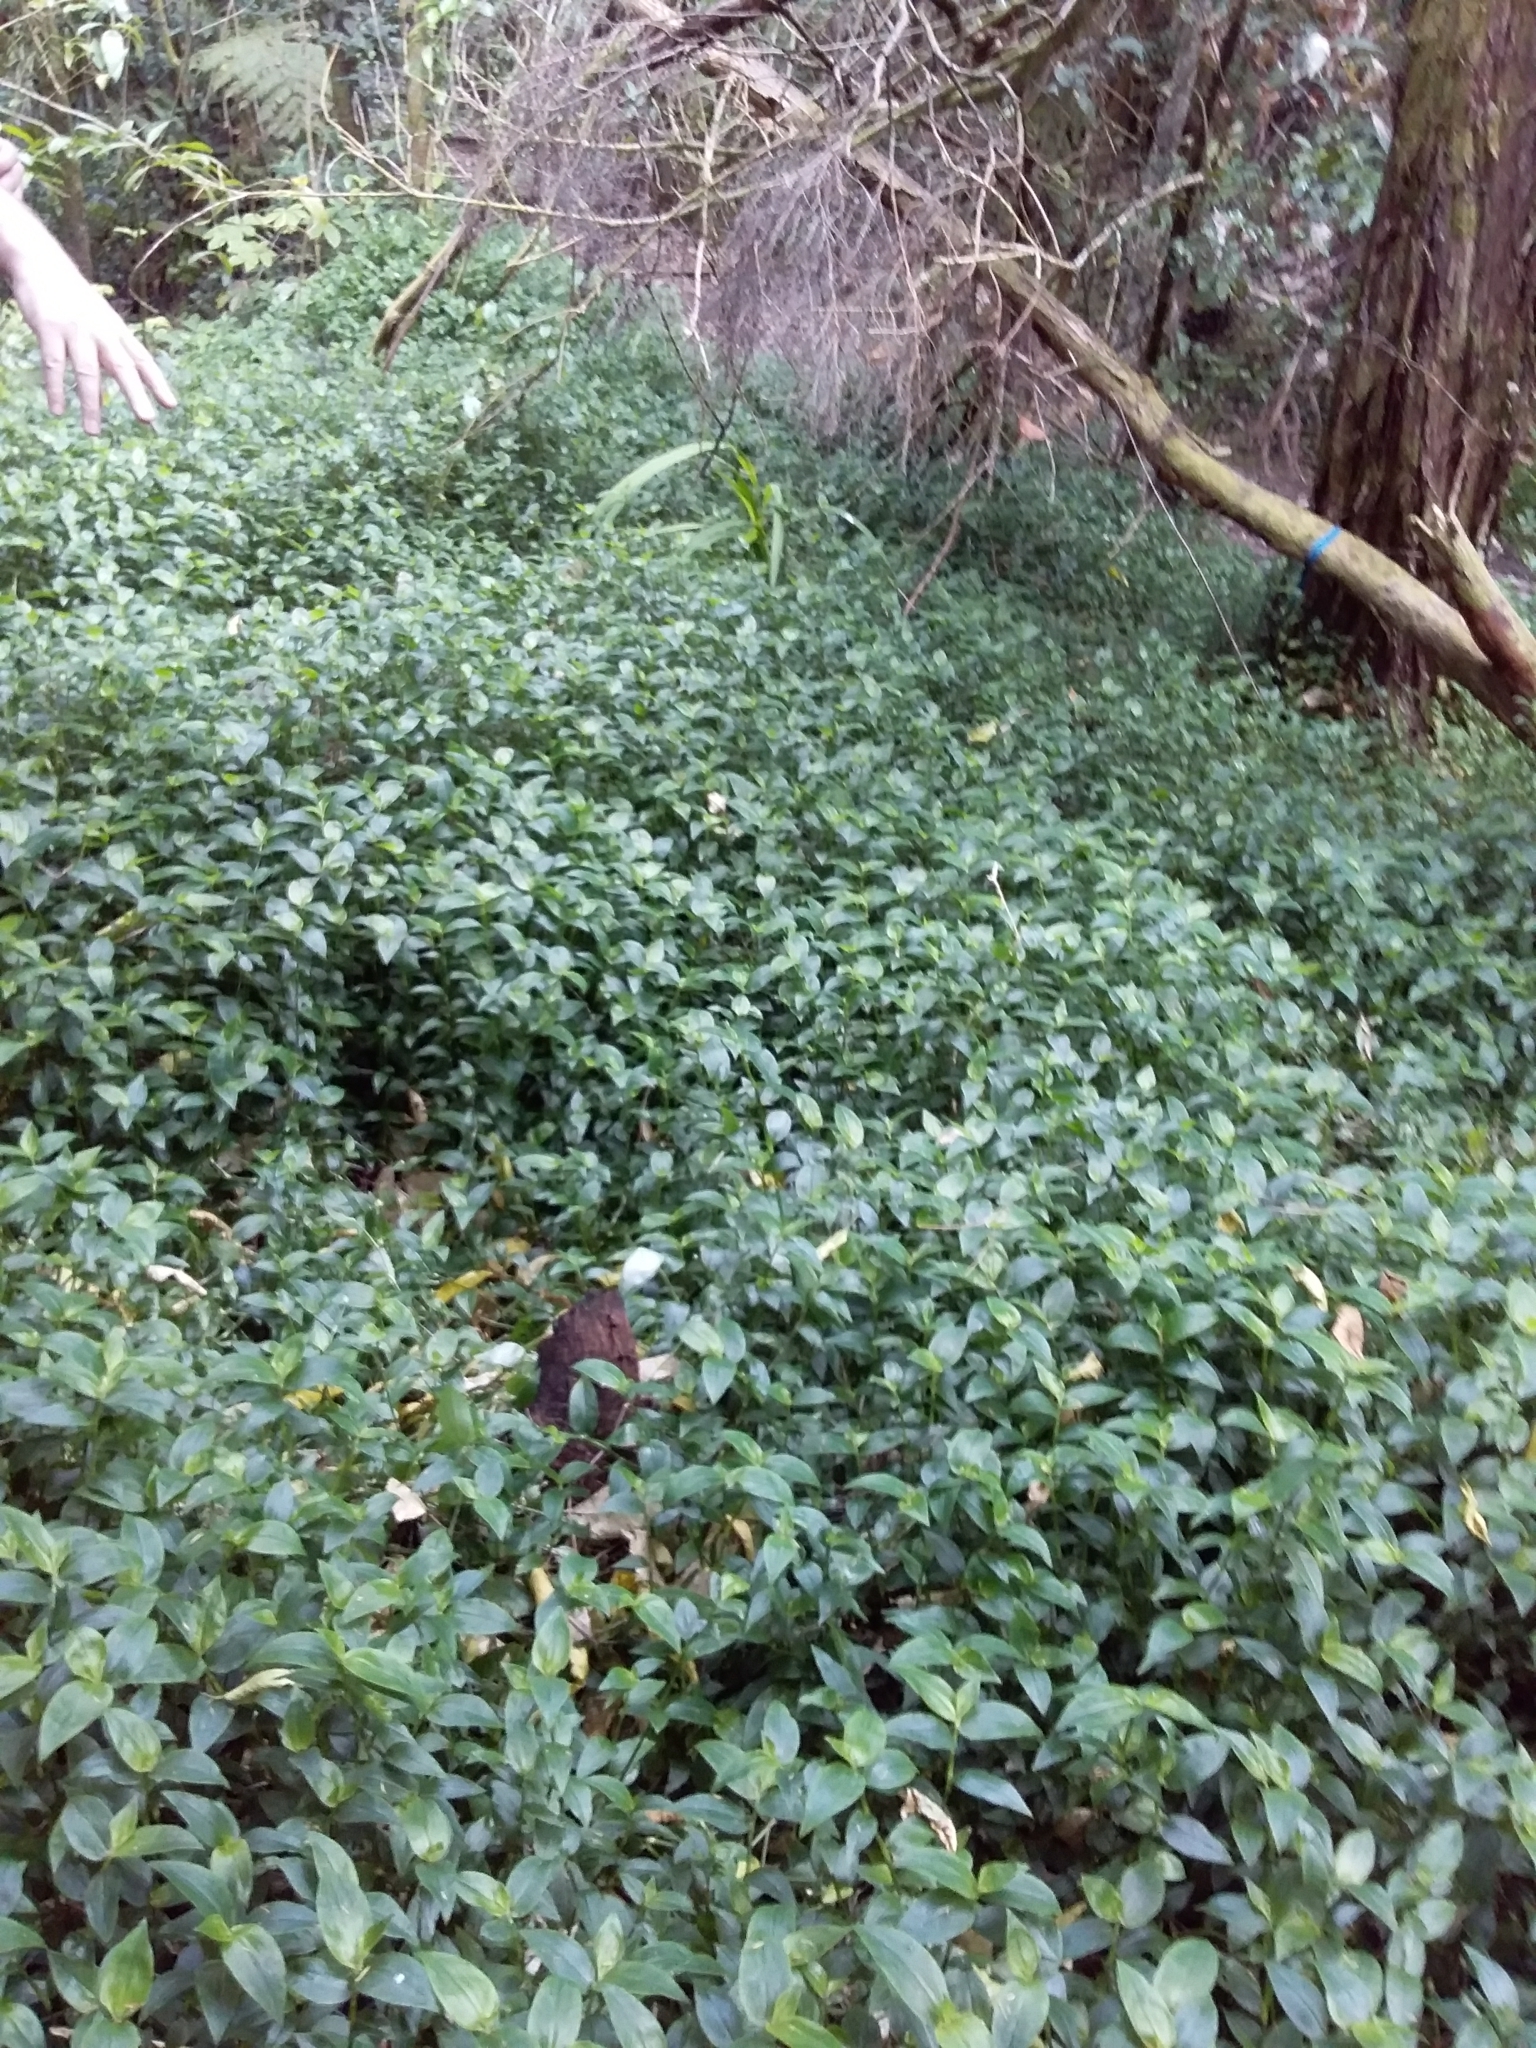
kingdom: Plantae
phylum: Tracheophyta
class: Liliopsida
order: Commelinales
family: Commelinaceae
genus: Tradescantia
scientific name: Tradescantia fluminensis
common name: Wandering-jew
